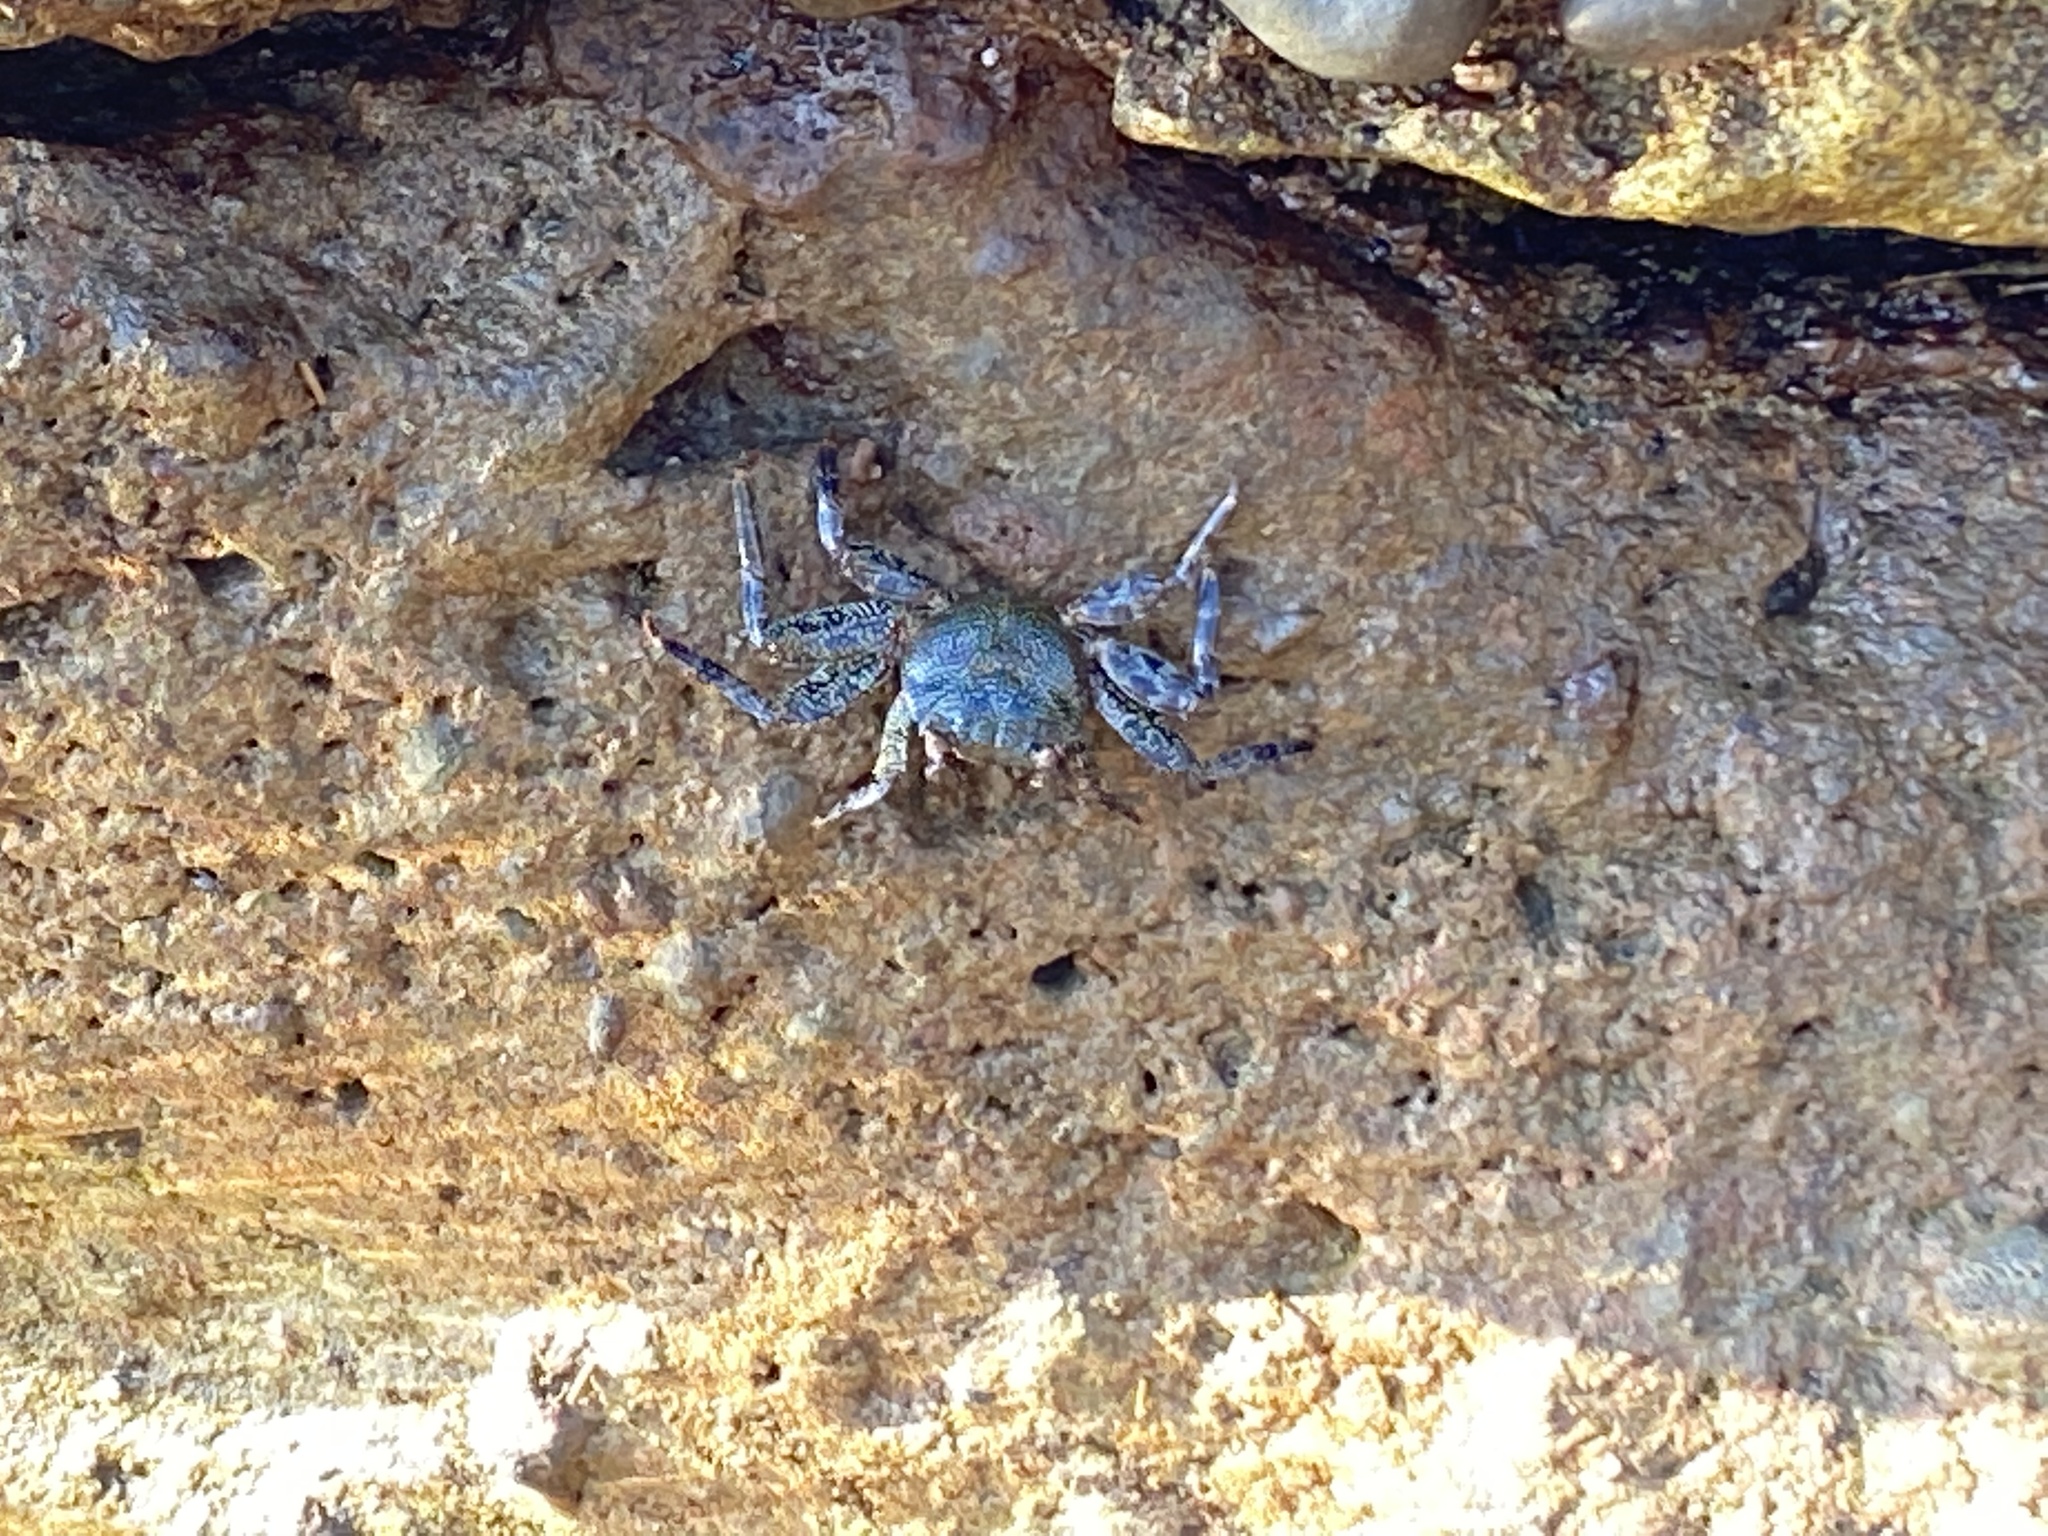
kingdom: Animalia
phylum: Arthropoda
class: Malacostraca
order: Decapoda
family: Grapsidae
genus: Grapsus
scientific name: Grapsus grapsus
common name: Sally lightfoot
